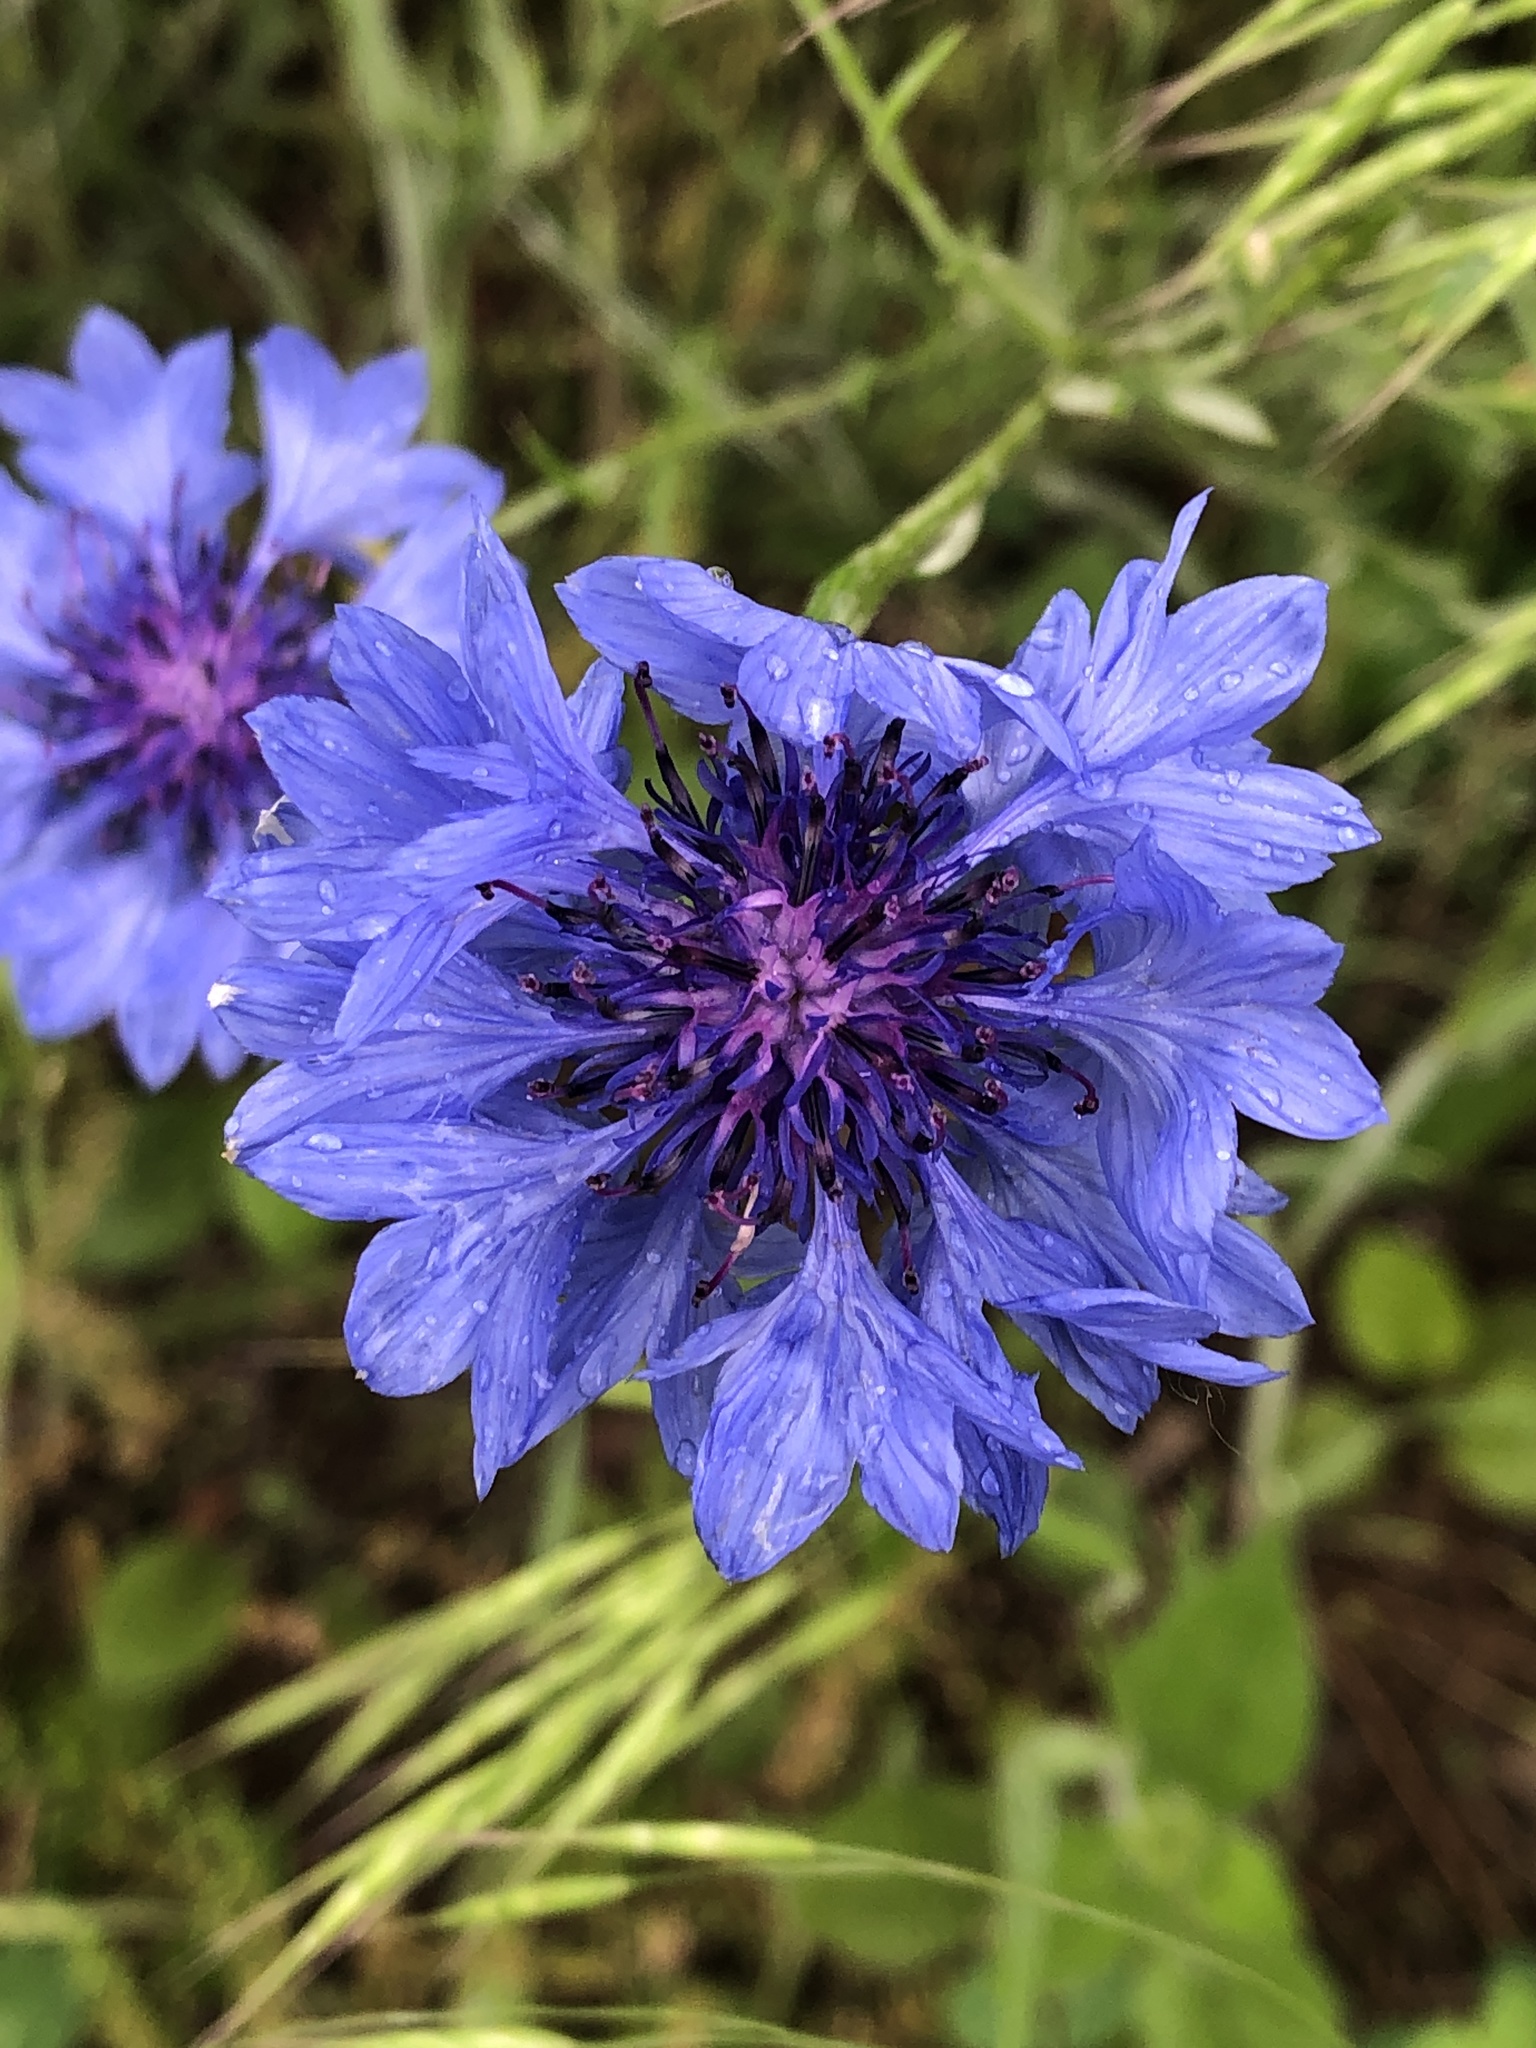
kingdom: Plantae
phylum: Tracheophyta
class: Magnoliopsida
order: Asterales
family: Asteraceae
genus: Centaurea
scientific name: Centaurea cyanus
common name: Cornflower
